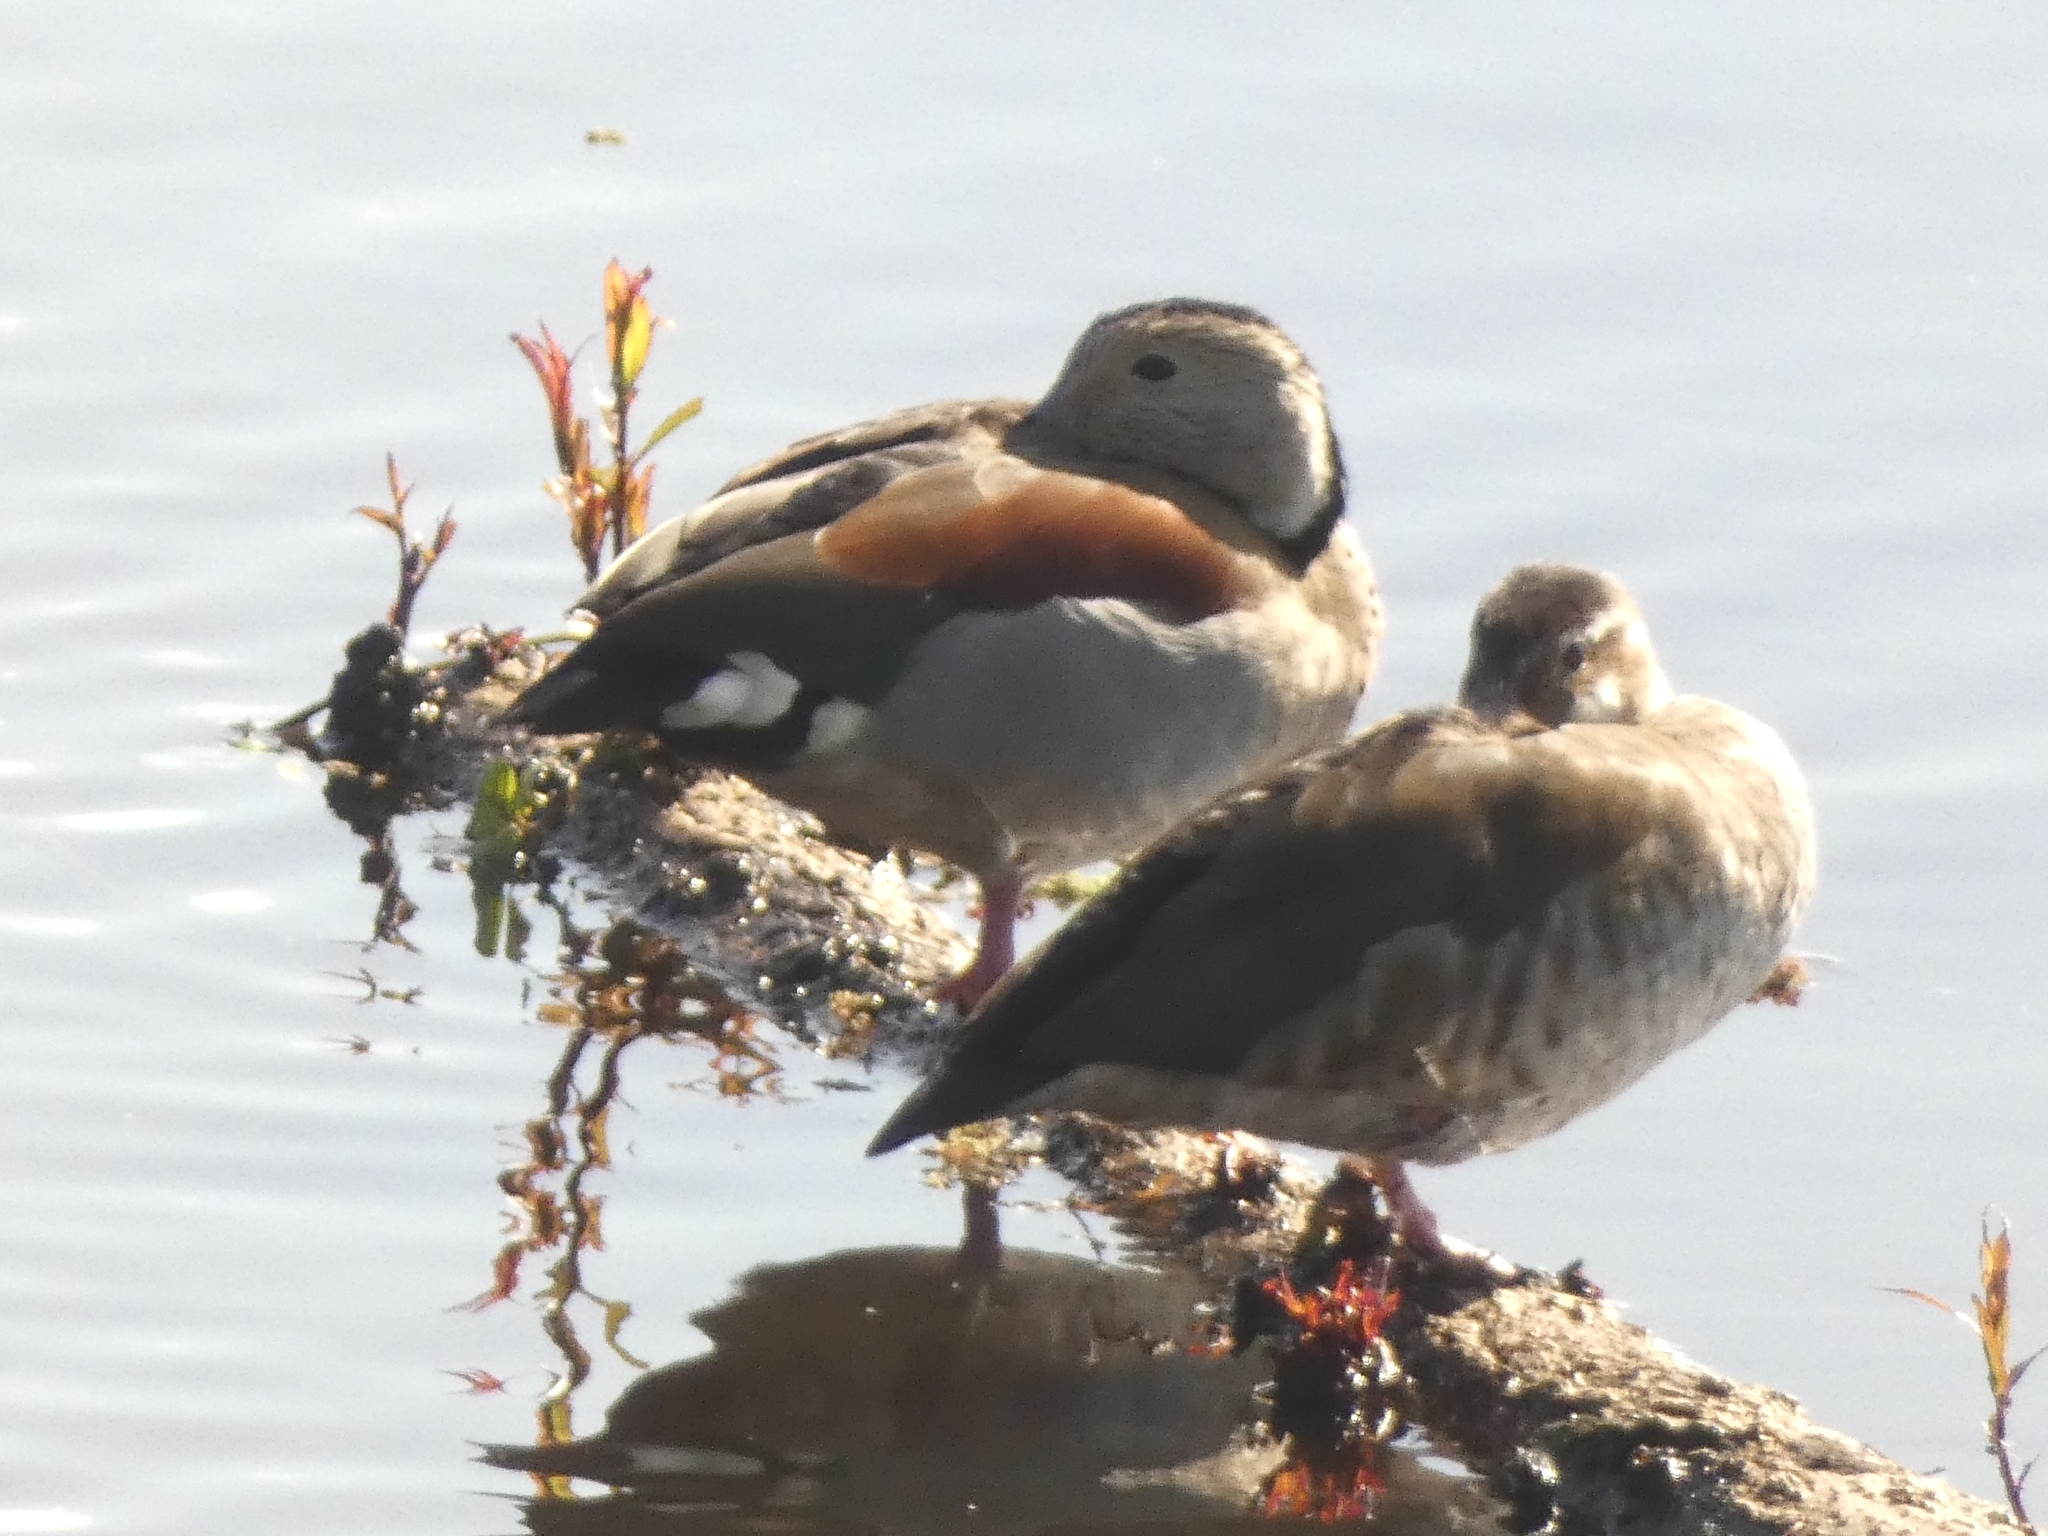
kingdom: Animalia
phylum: Chordata
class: Aves
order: Anseriformes
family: Anatidae
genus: Callonetta
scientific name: Callonetta leucophrys
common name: Ringed teal
